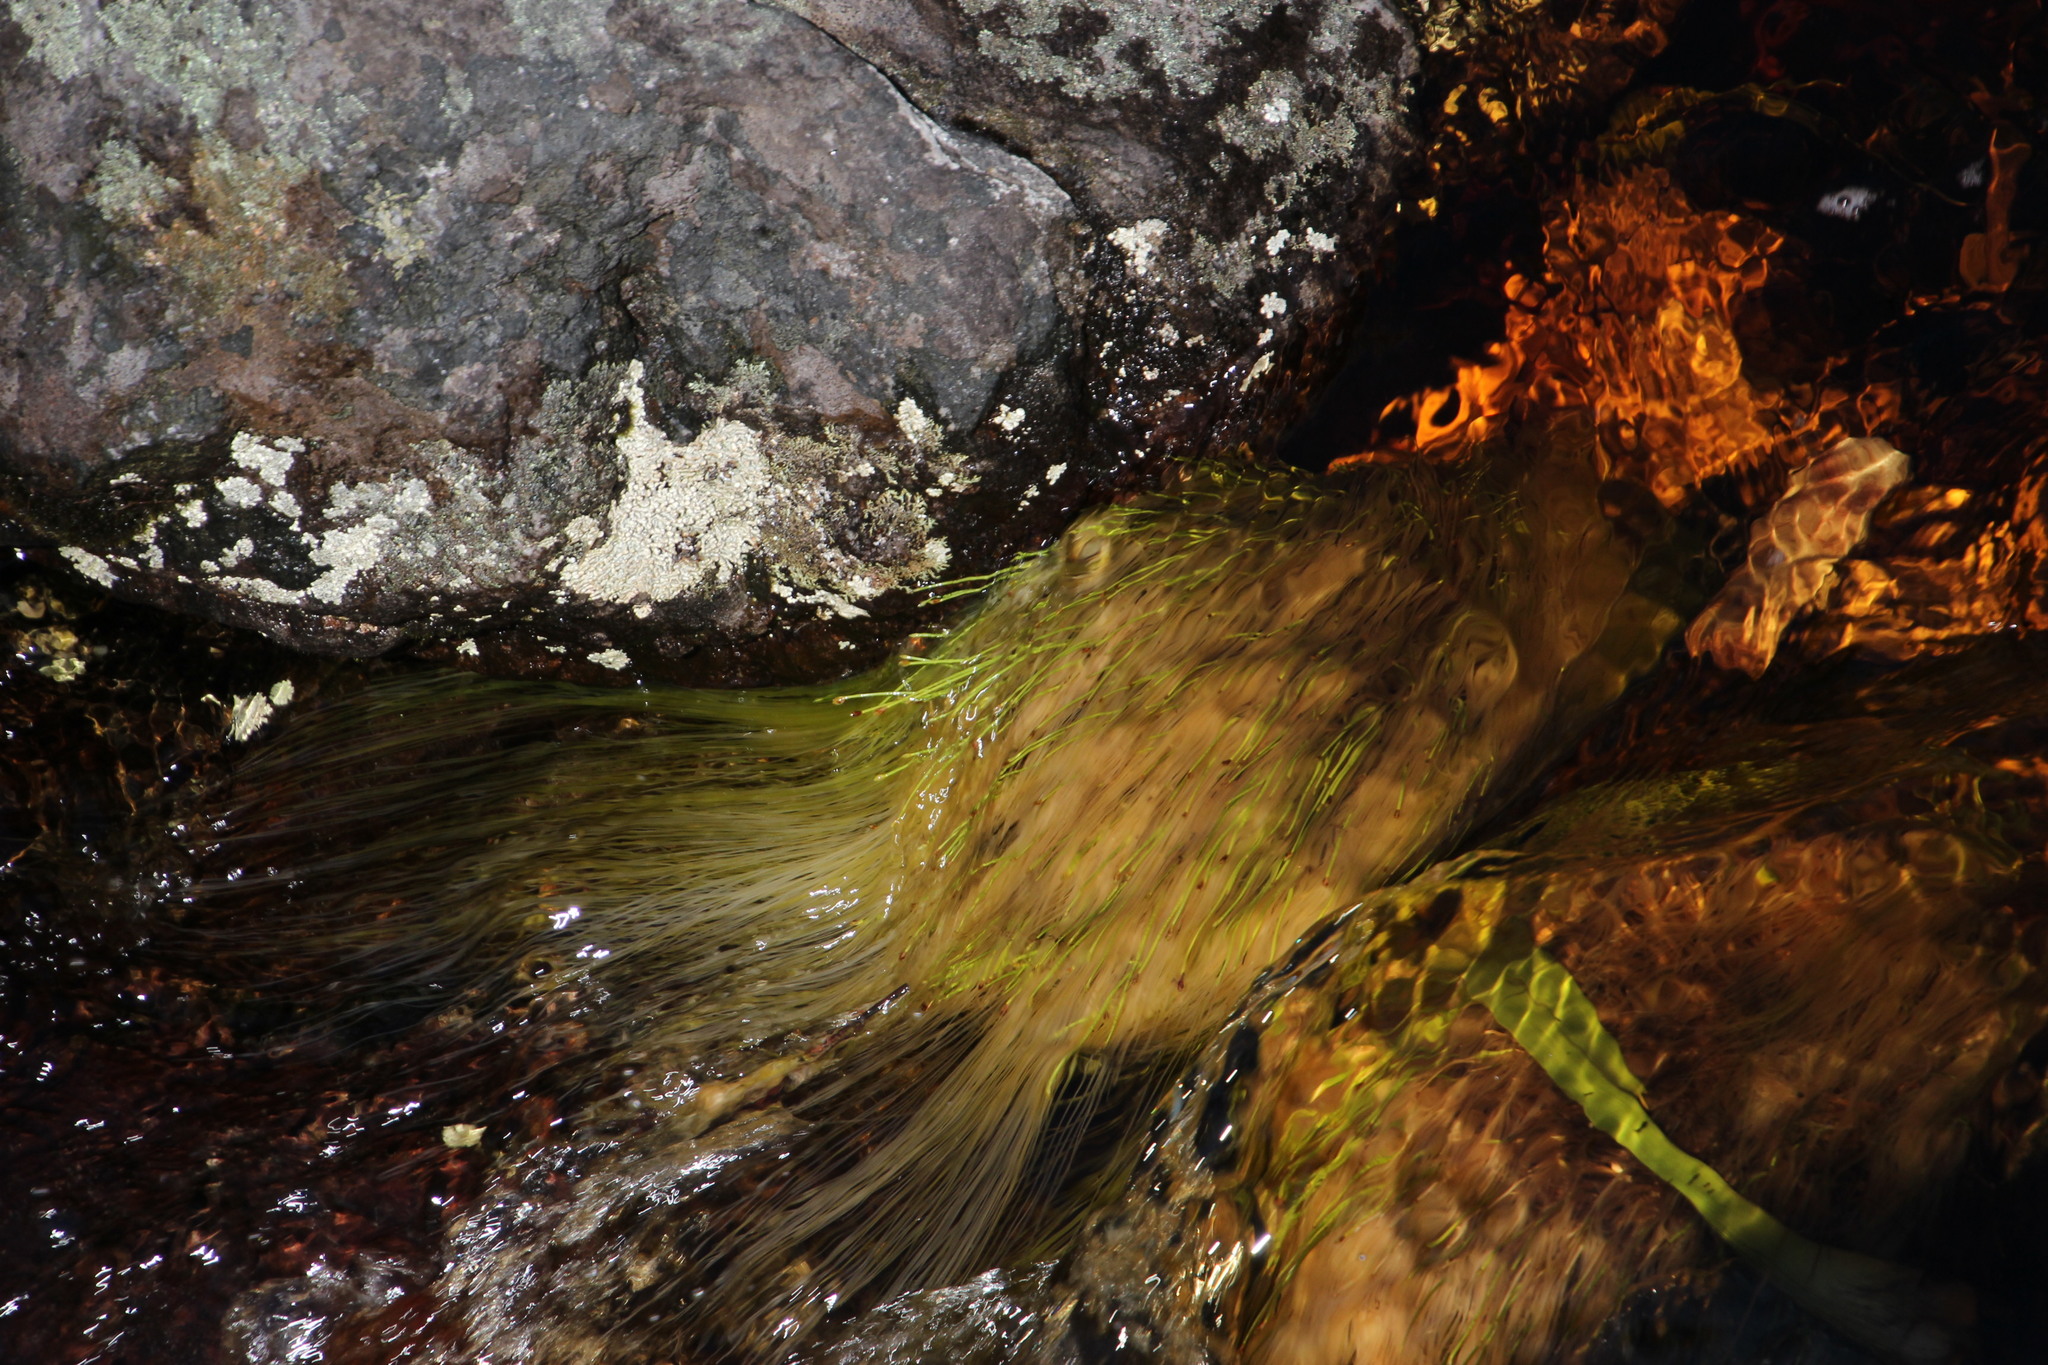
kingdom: Plantae
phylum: Tracheophyta
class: Liliopsida
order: Poales
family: Cyperaceae
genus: Isolepis
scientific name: Isolepis digitata
